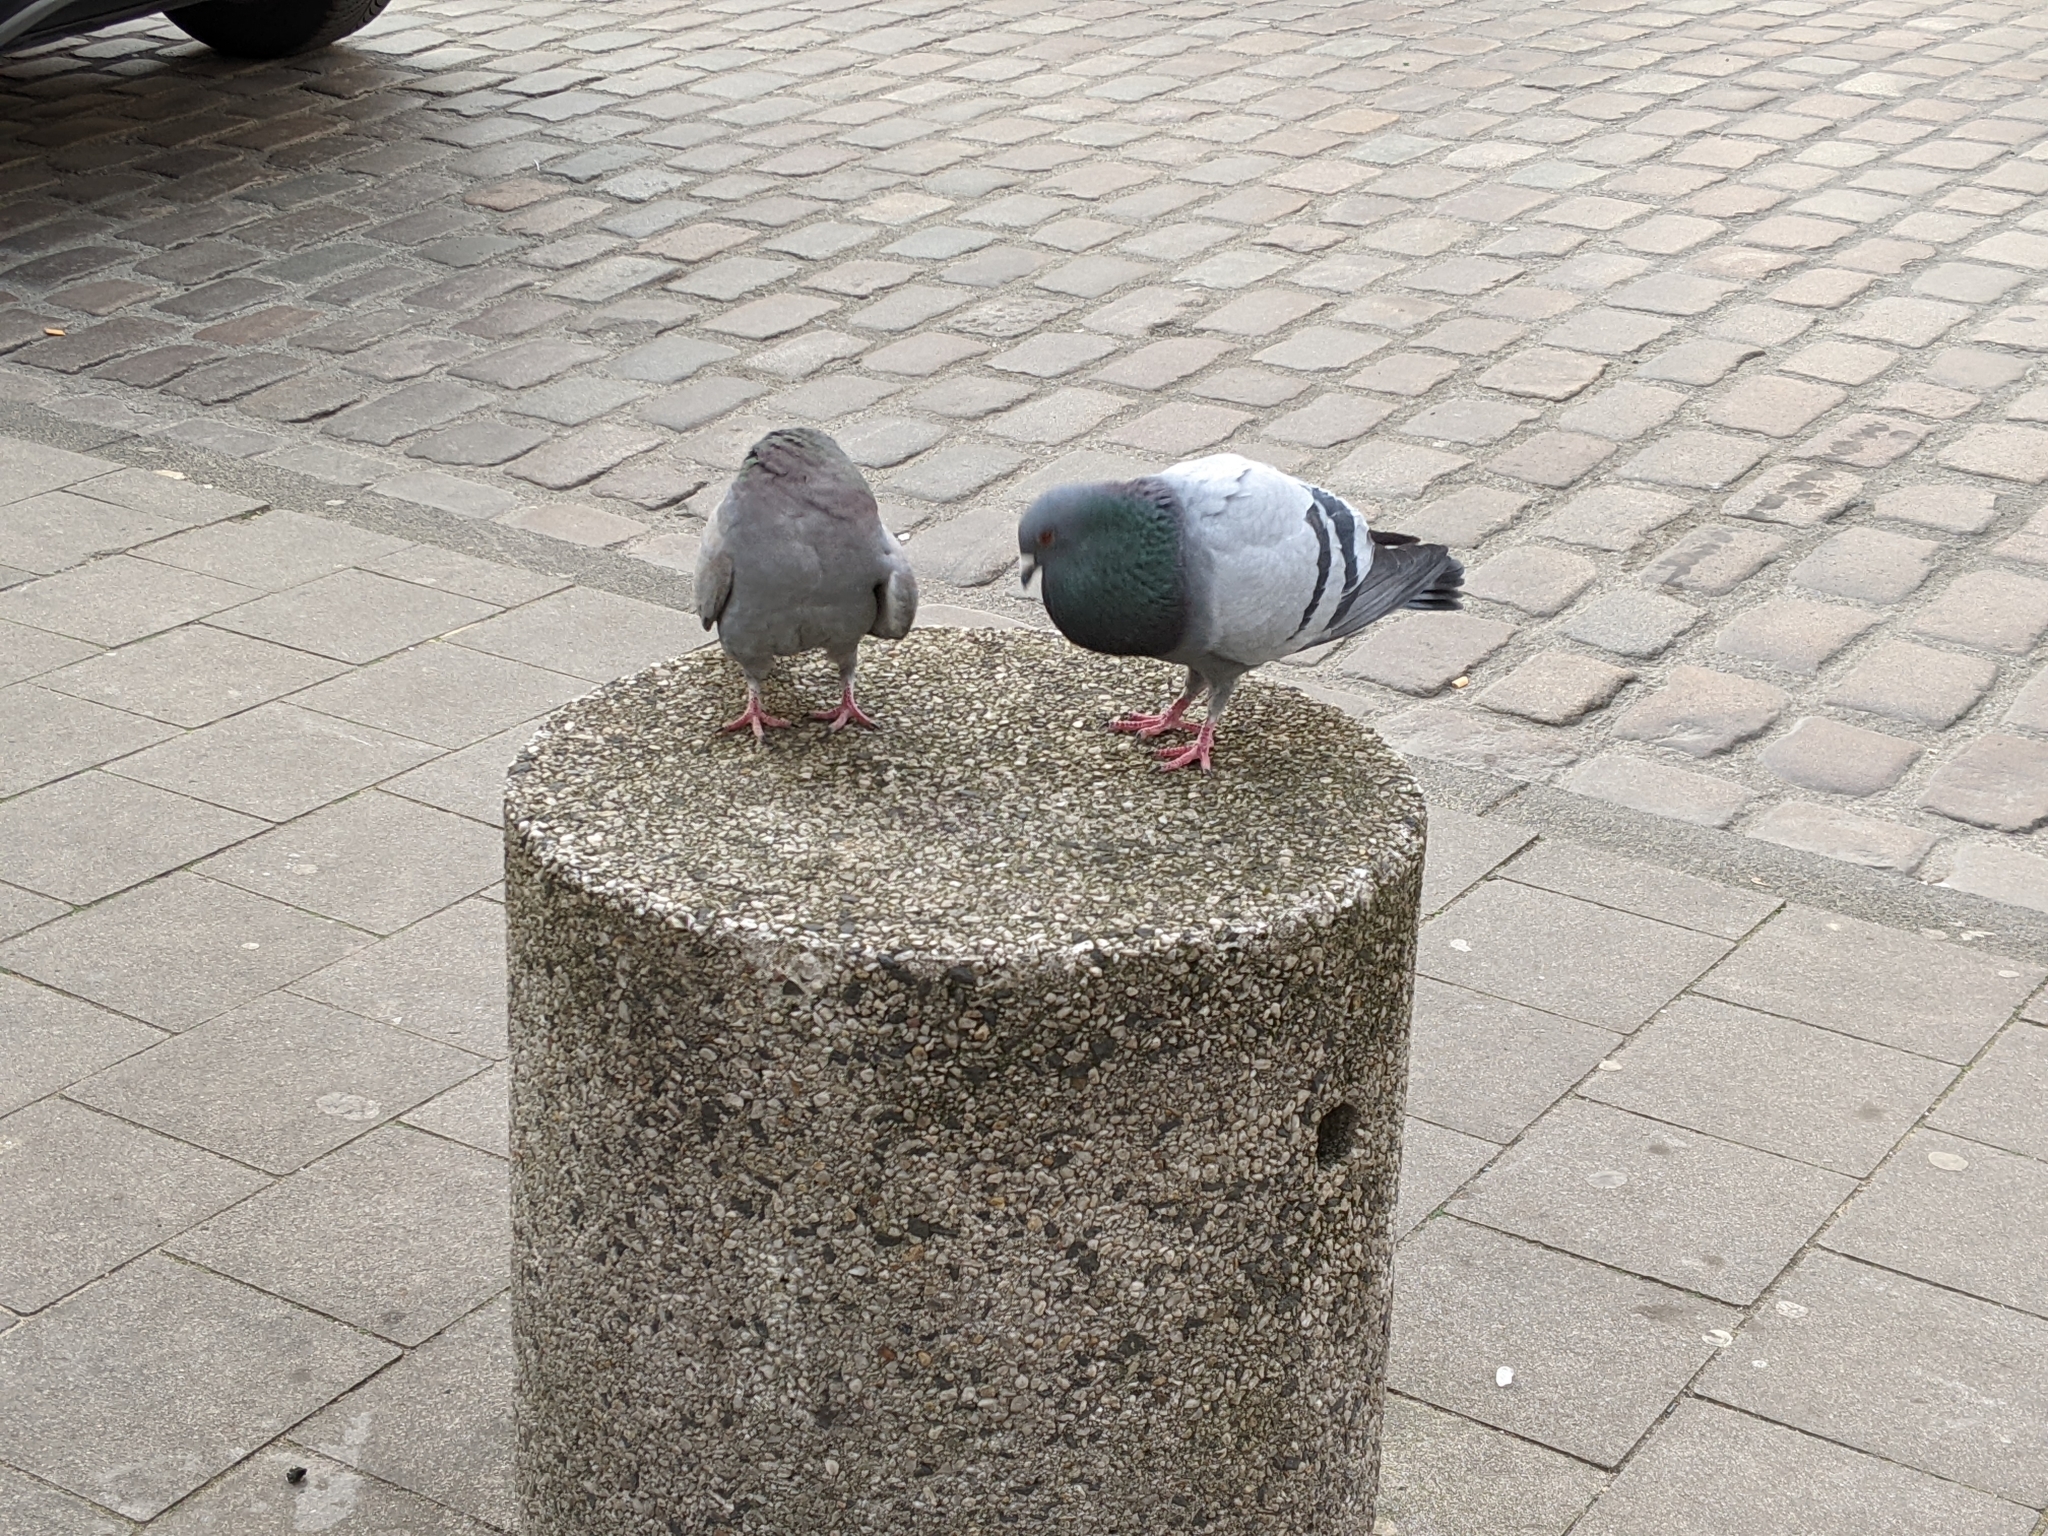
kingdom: Animalia
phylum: Chordata
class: Aves
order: Columbiformes
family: Columbidae
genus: Columba
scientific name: Columba livia
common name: Rock pigeon
